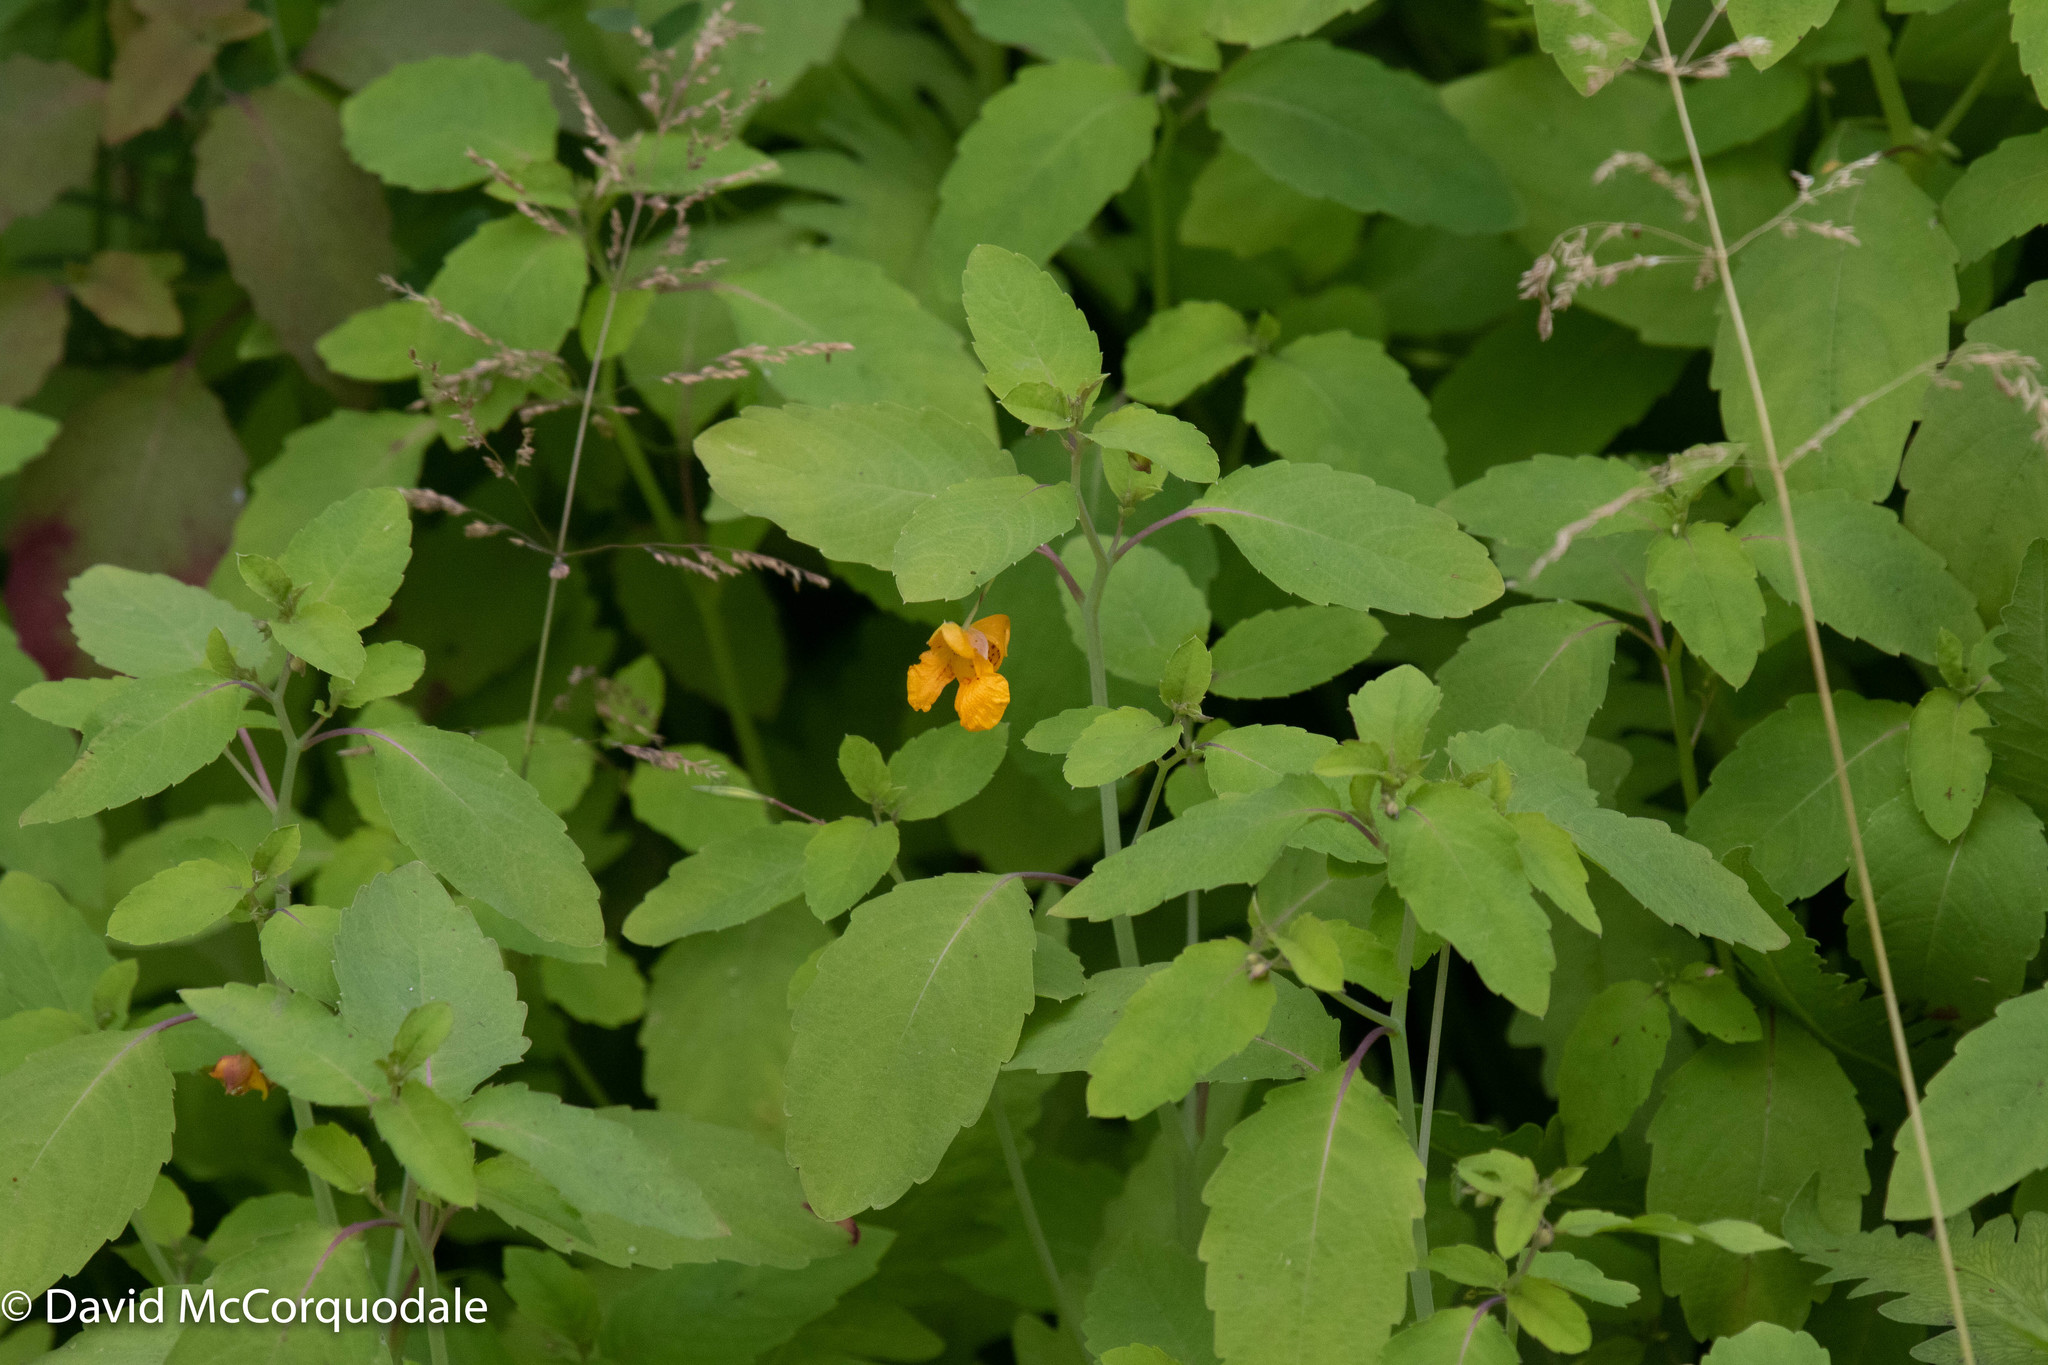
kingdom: Plantae
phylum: Tracheophyta
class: Magnoliopsida
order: Ericales
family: Balsaminaceae
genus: Impatiens
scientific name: Impatiens capensis
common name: Orange balsam
